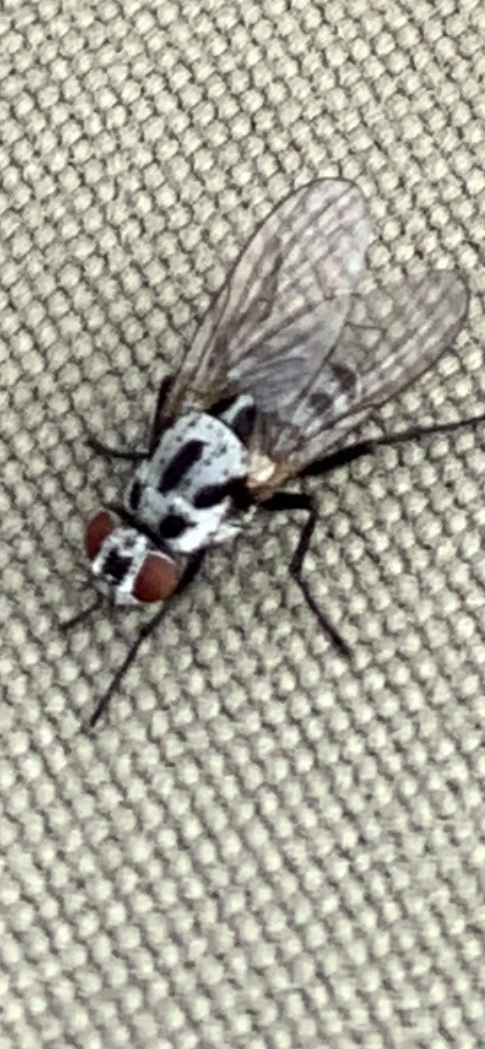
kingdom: Animalia
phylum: Arthropoda
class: Insecta
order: Diptera
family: Anthomyiidae
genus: Anthomyia
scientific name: Anthomyia procellaris
